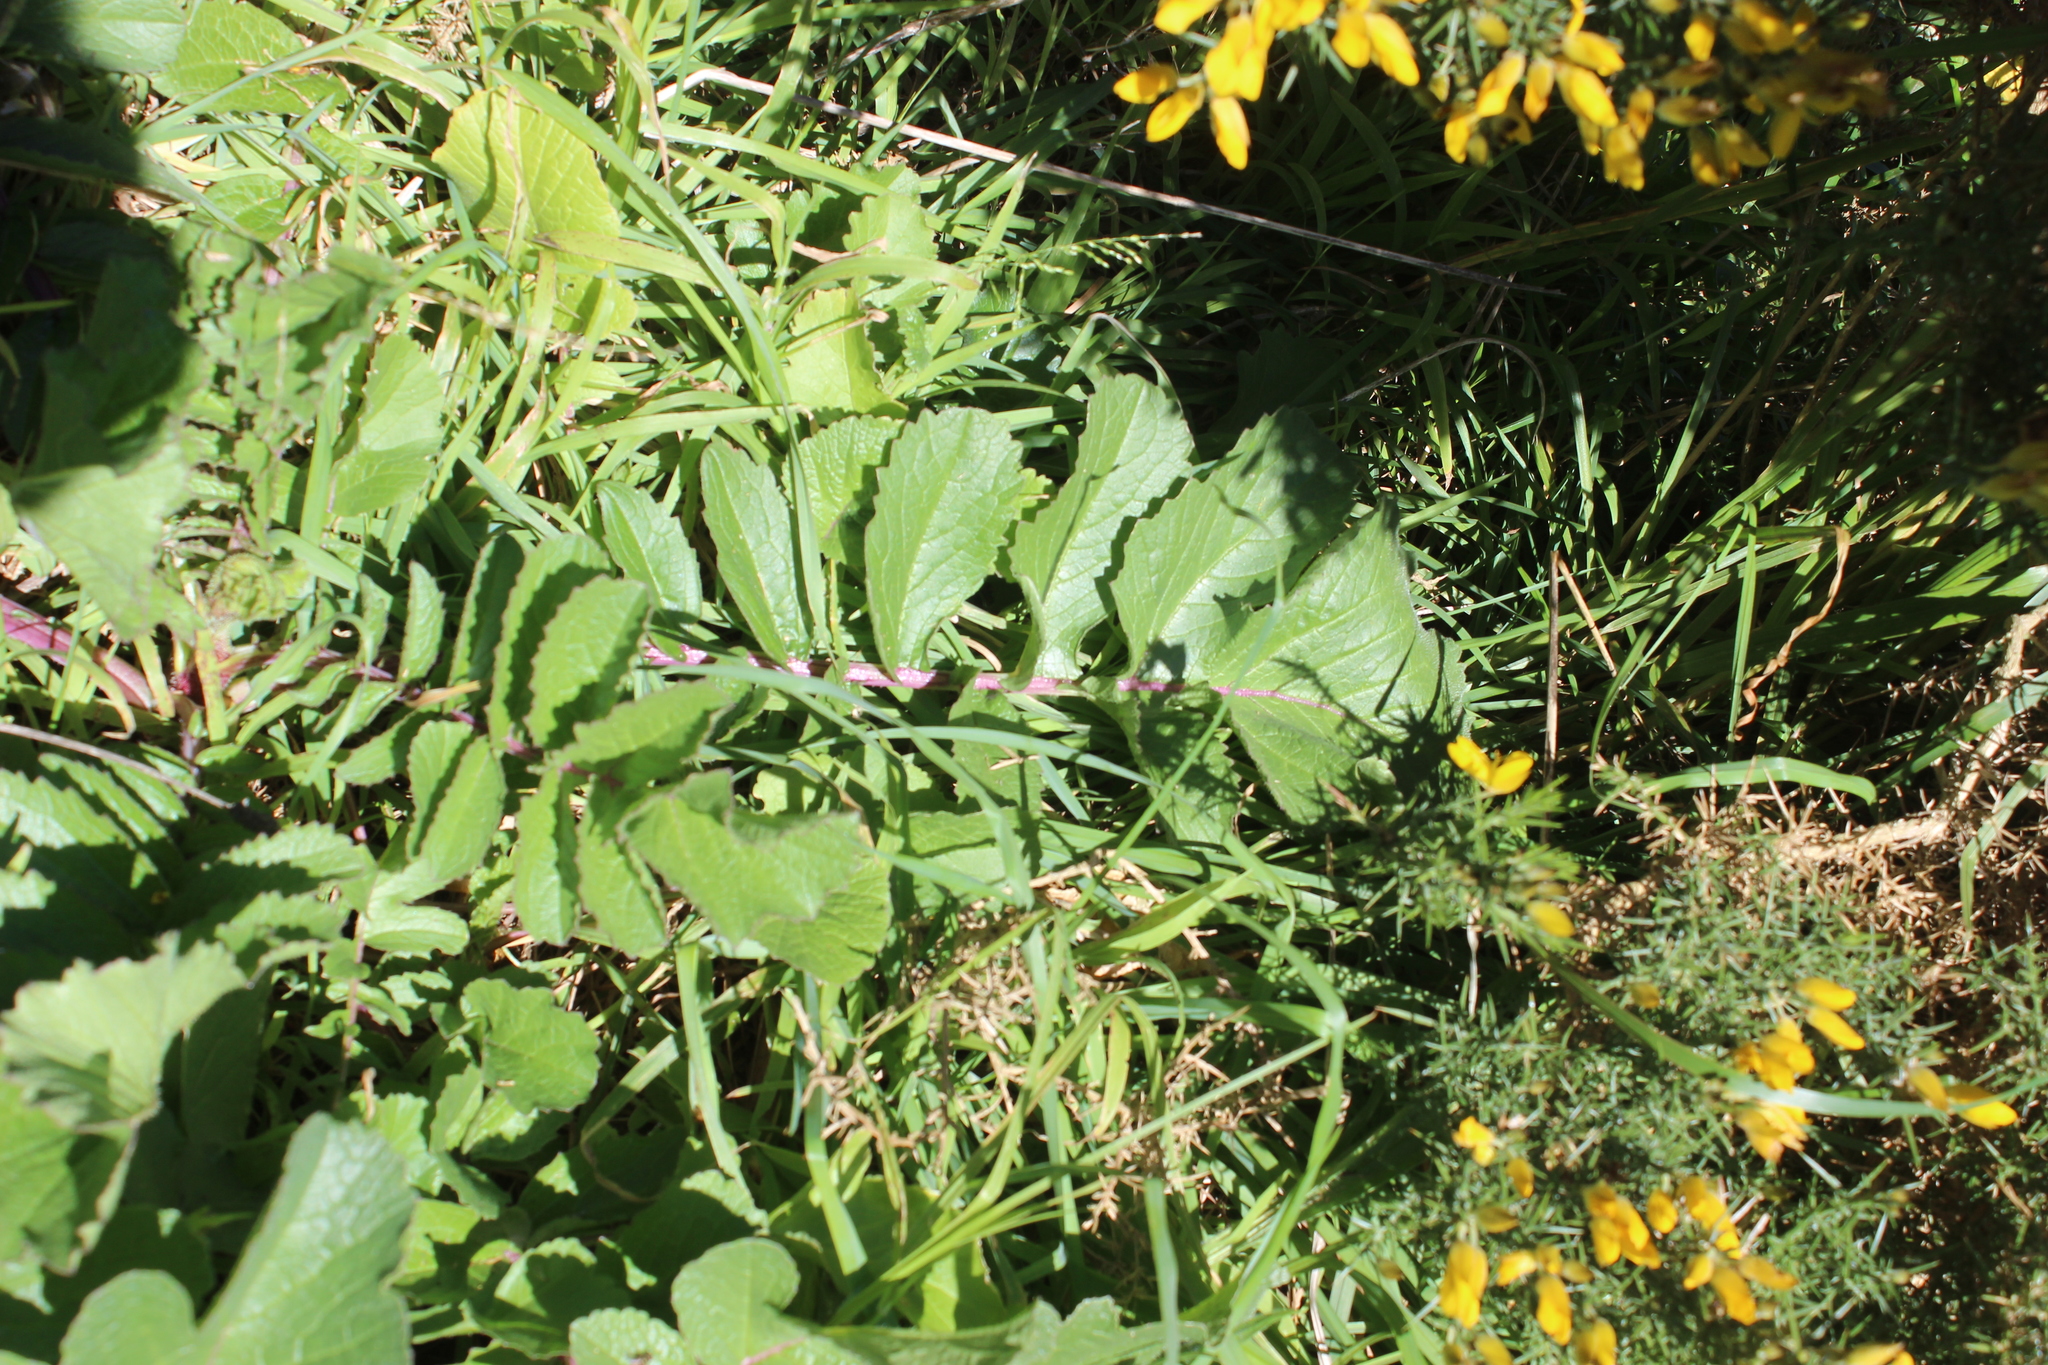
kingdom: Plantae
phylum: Tracheophyta
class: Magnoliopsida
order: Brassicales
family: Brassicaceae
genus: Raphanus
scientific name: Raphanus raphanistrum
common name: Wild radish
